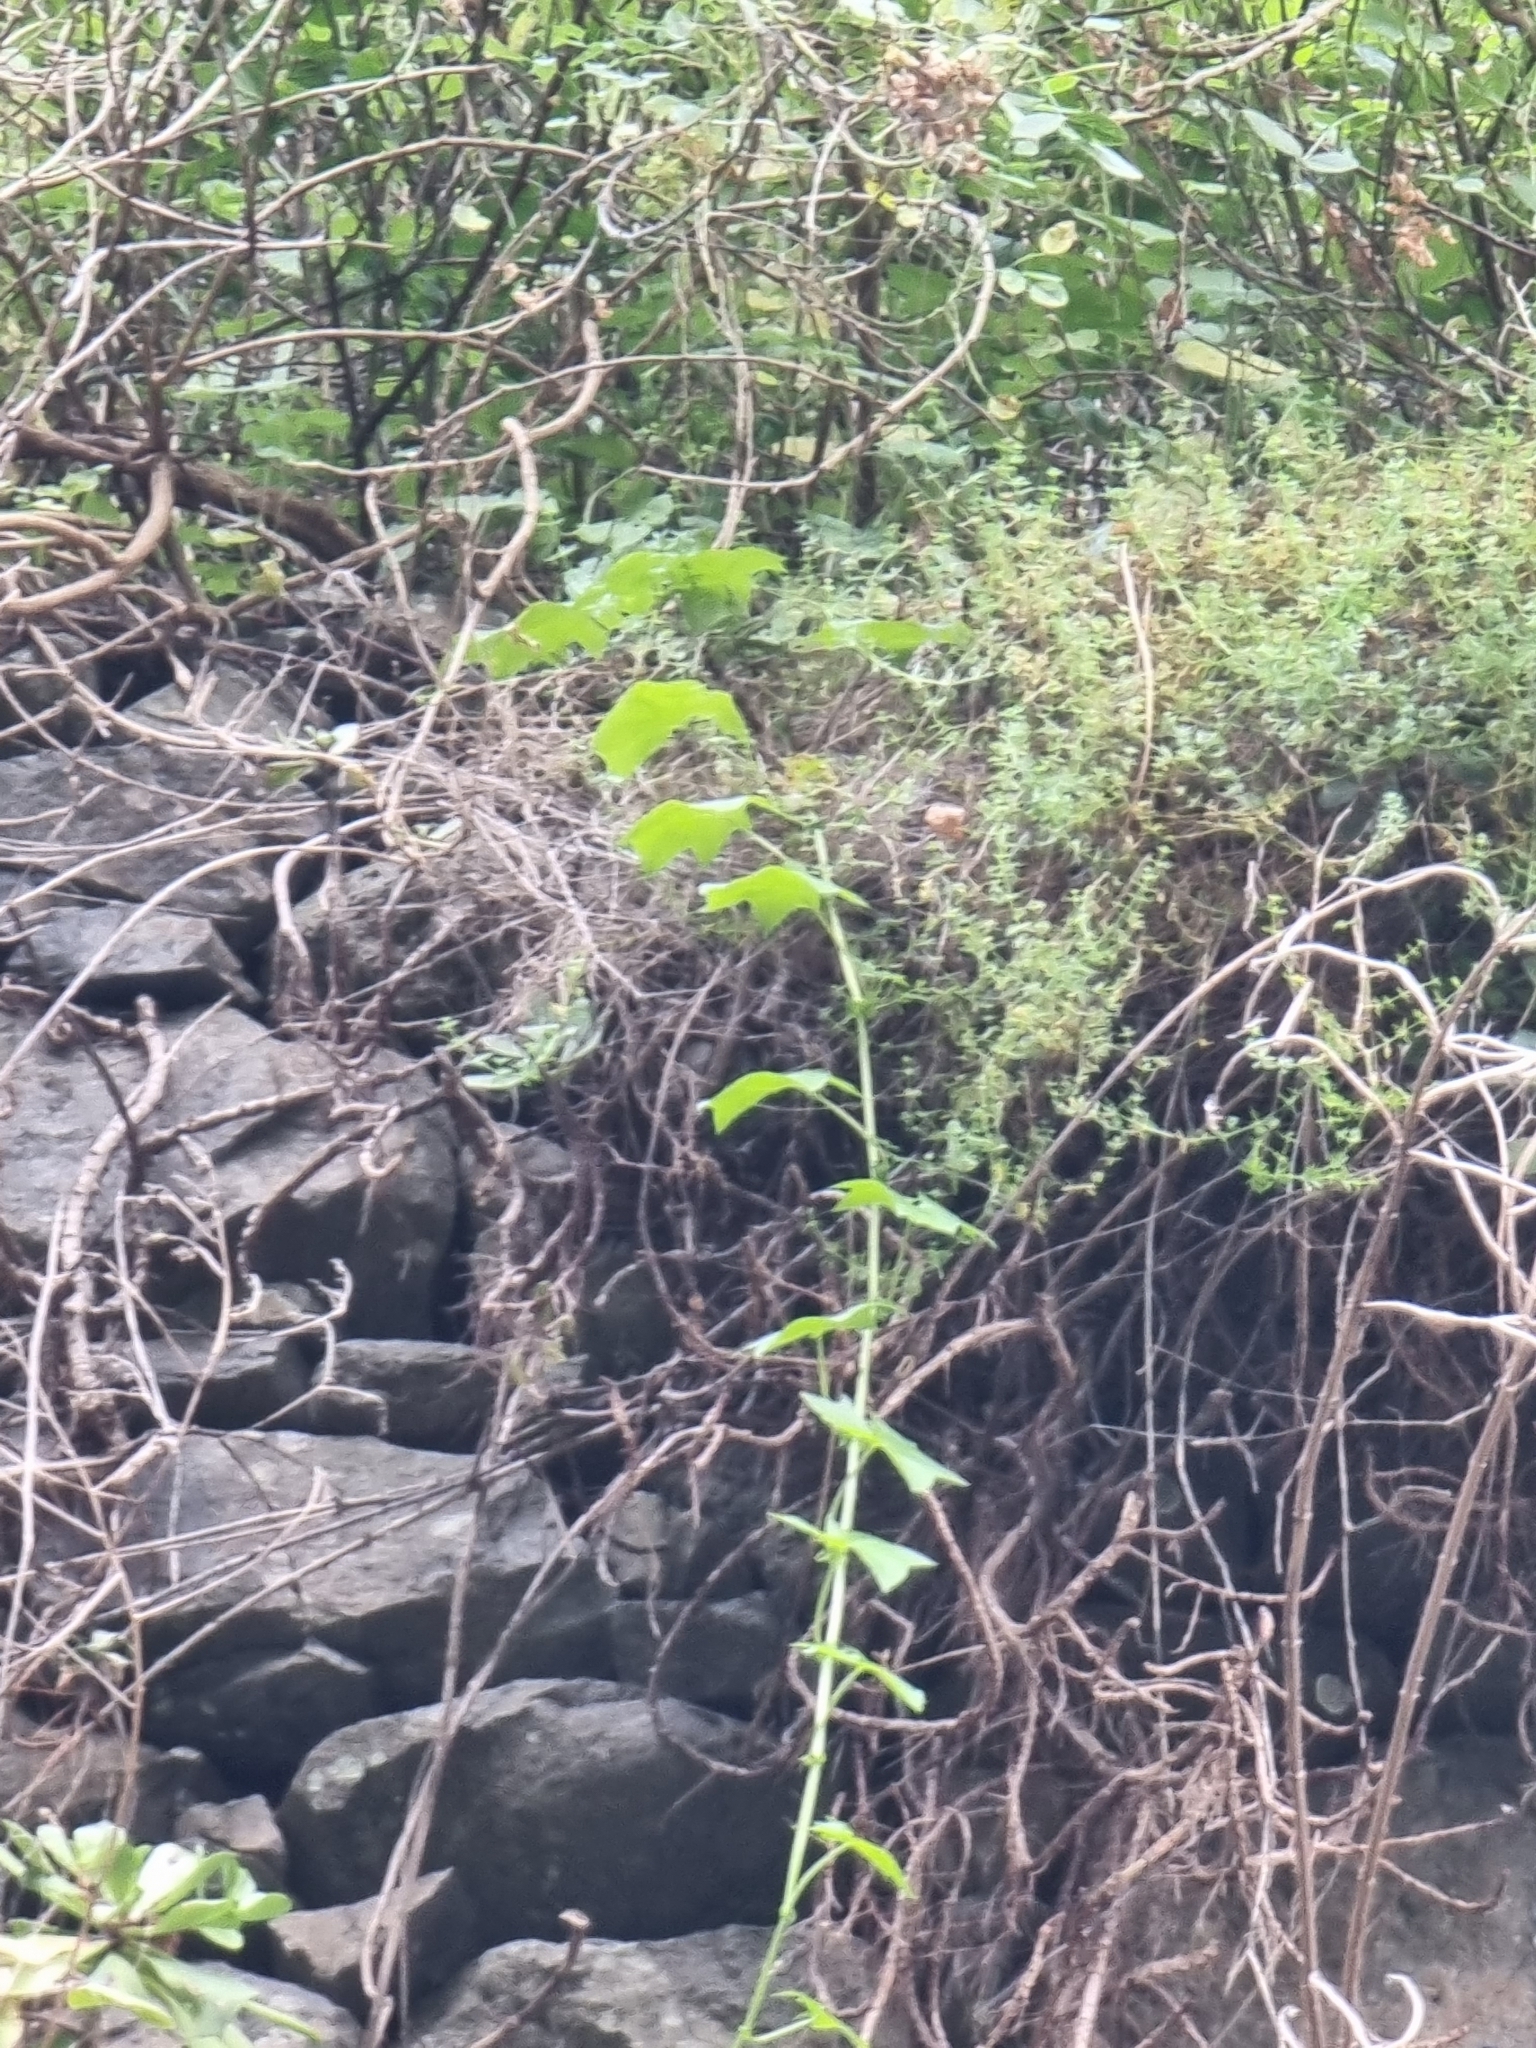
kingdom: Plantae
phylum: Tracheophyta
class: Magnoliopsida
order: Asterales
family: Asteraceae
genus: Delairea
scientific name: Delairea odorata
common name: Cape-ivy
